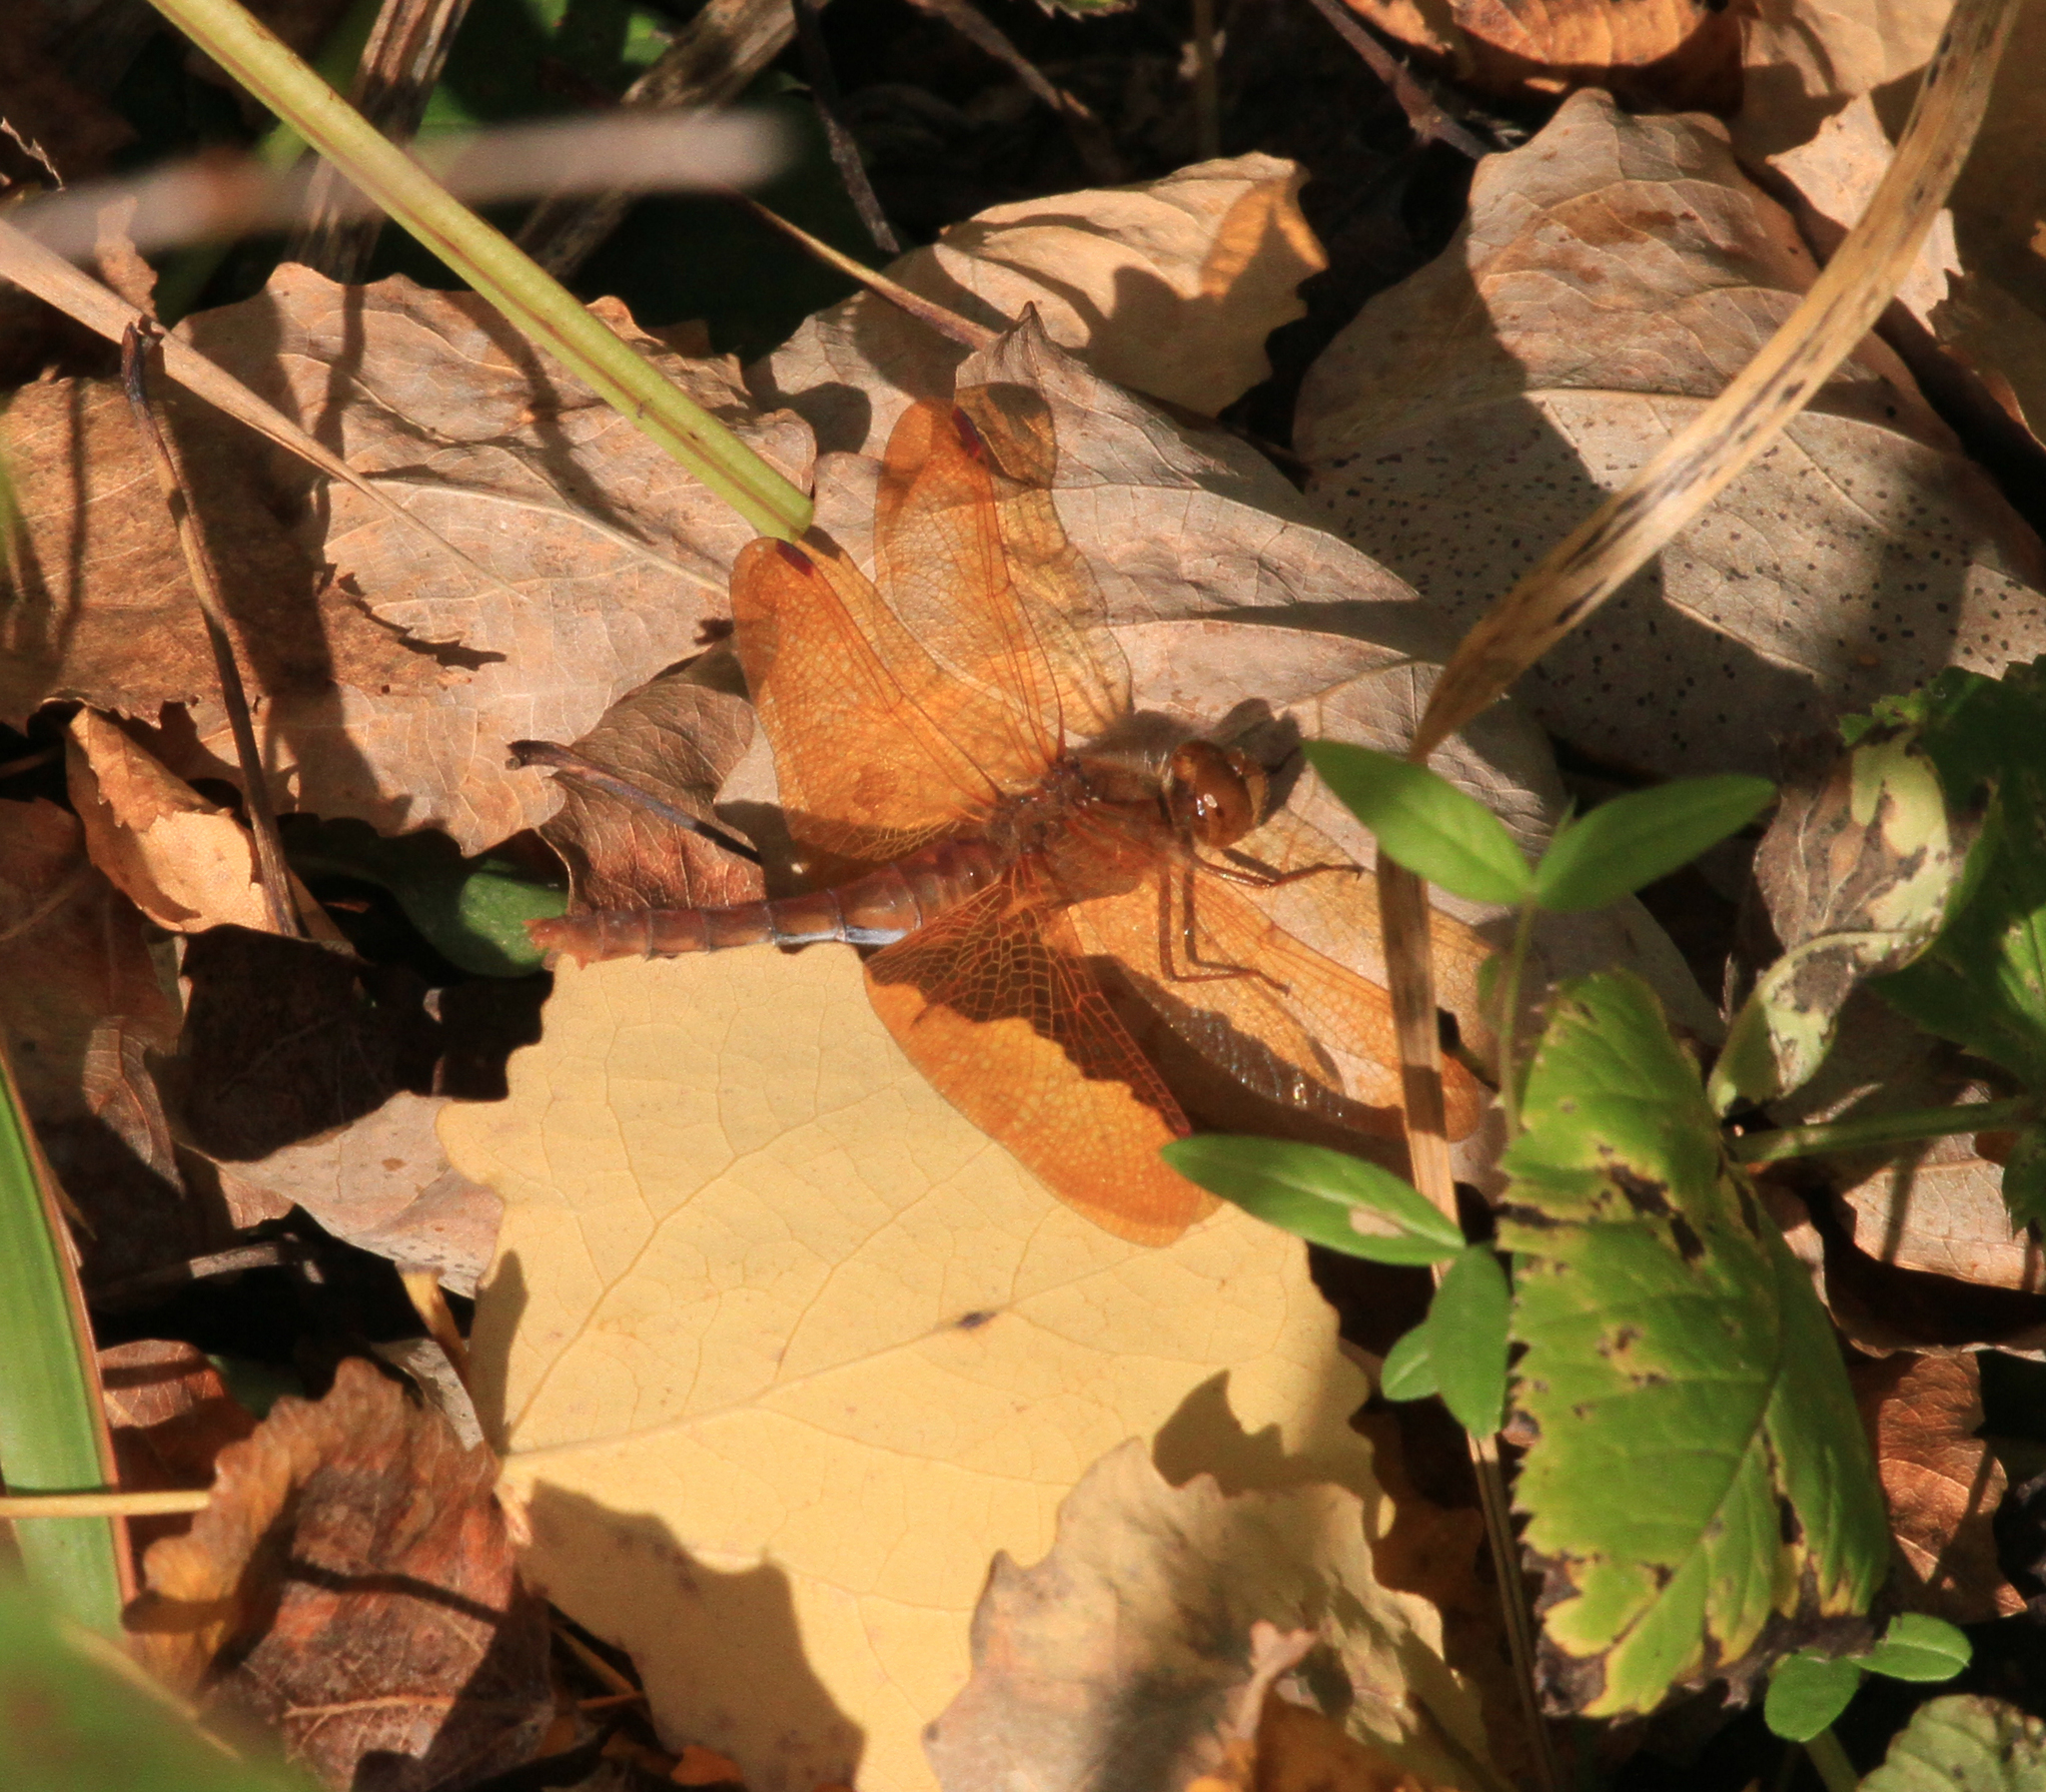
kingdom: Animalia
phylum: Arthropoda
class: Insecta
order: Odonata
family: Libellulidae
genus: Sympetrum
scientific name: Sympetrum croceolum
